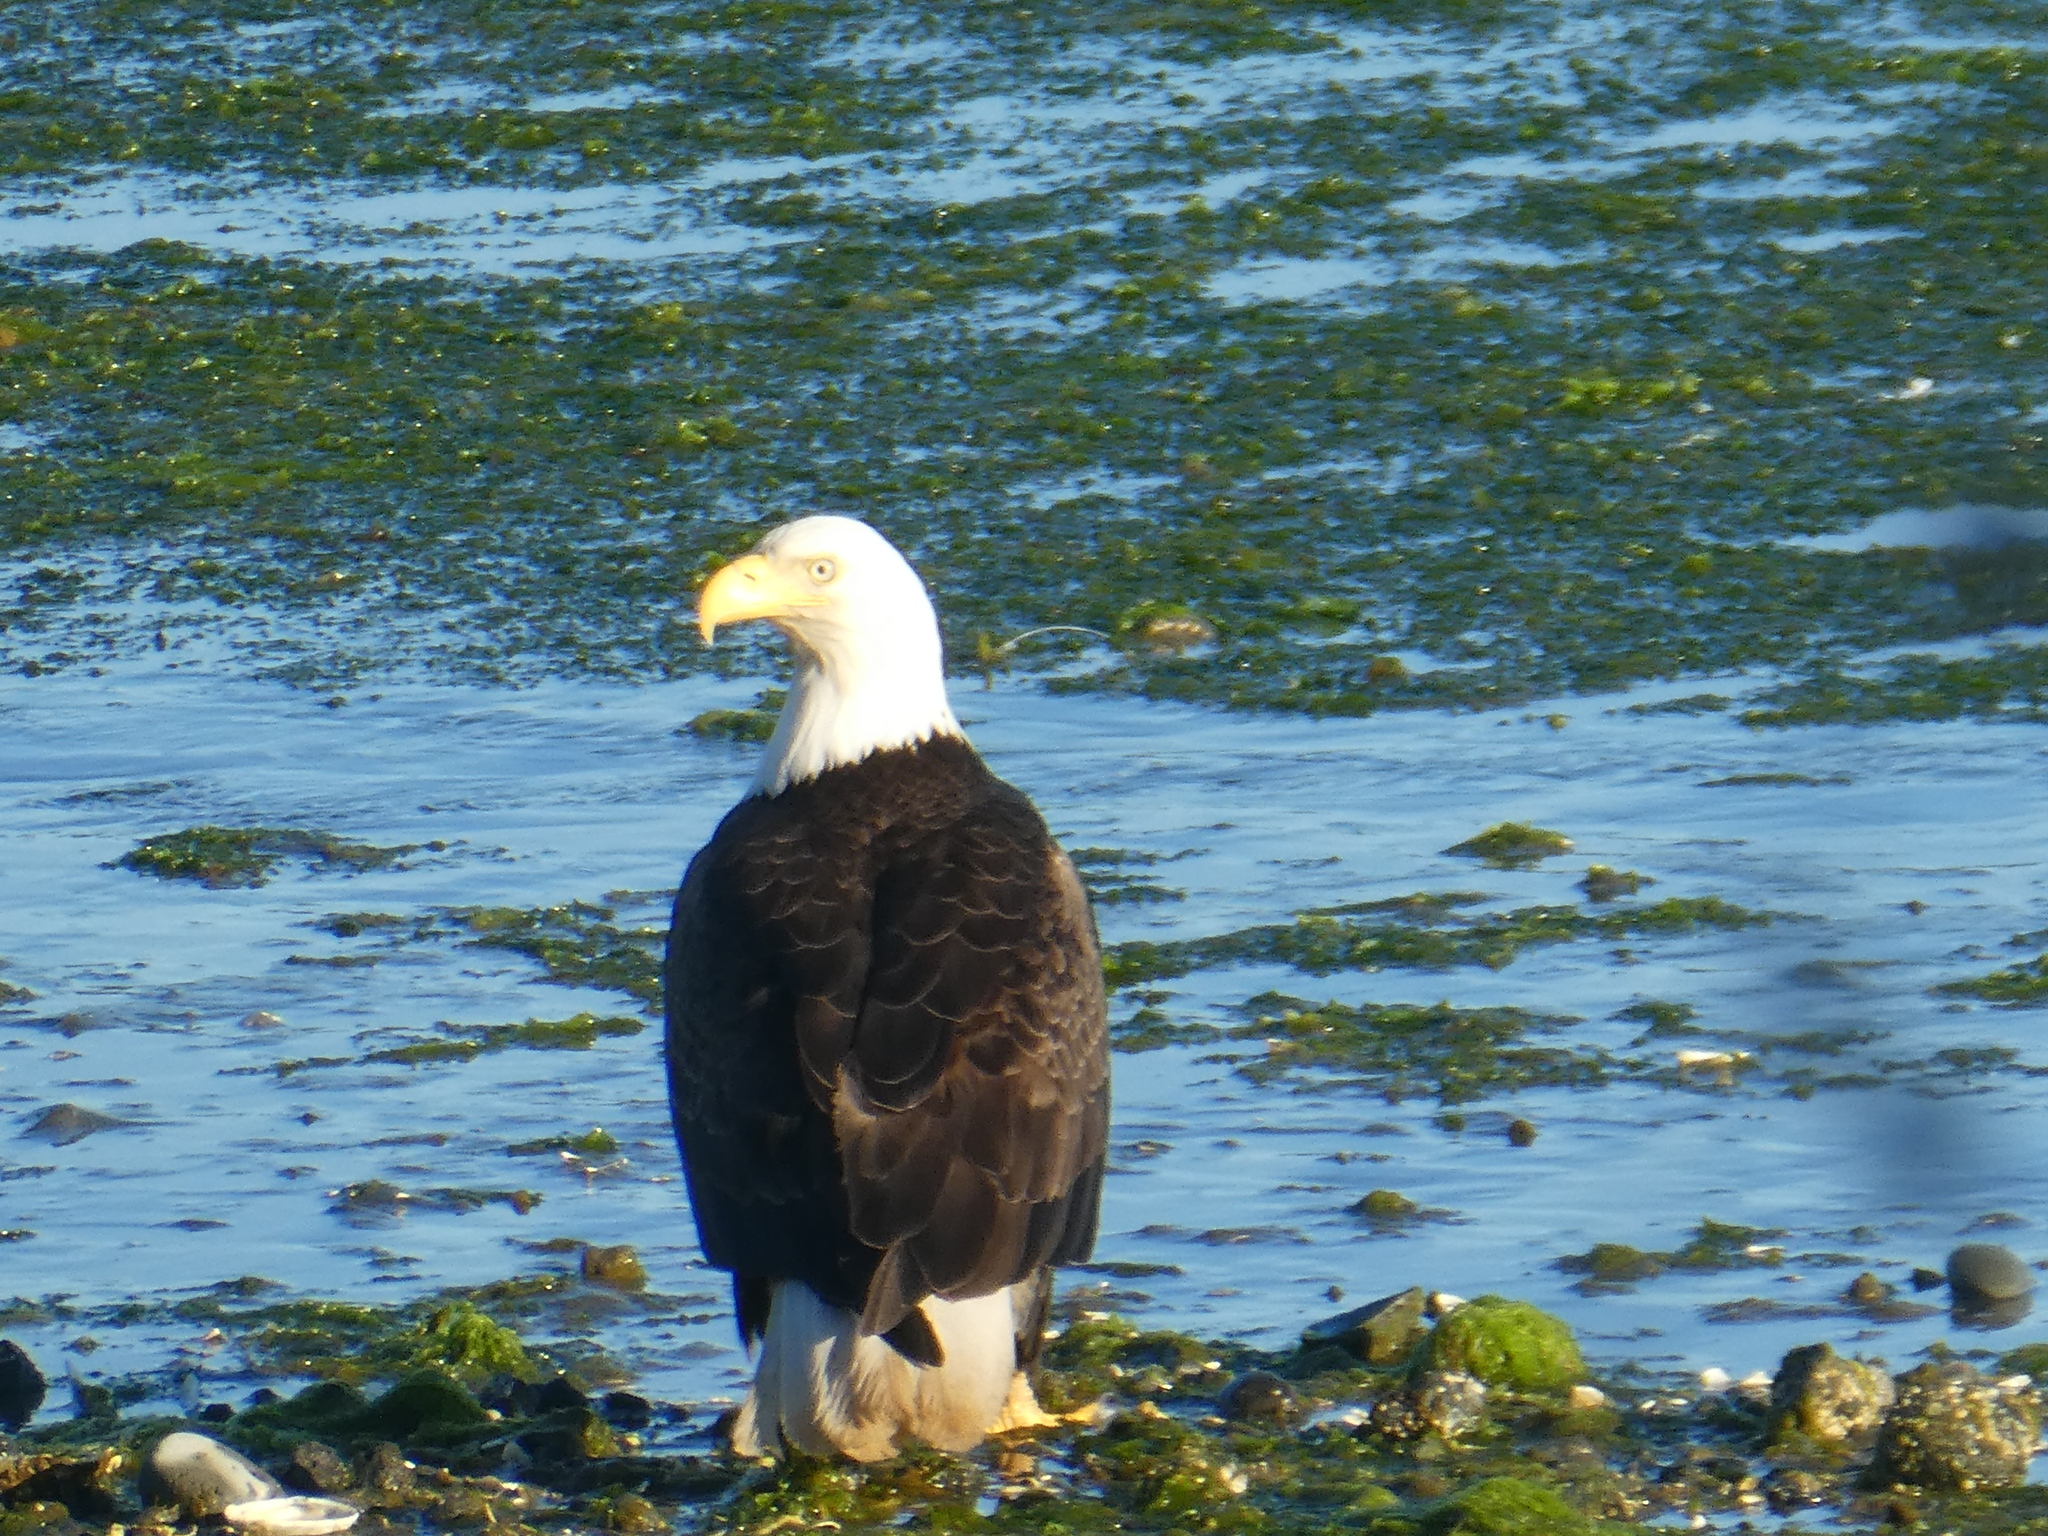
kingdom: Animalia
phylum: Chordata
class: Aves
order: Accipitriformes
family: Accipitridae
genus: Haliaeetus
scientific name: Haliaeetus leucocephalus
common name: Bald eagle
